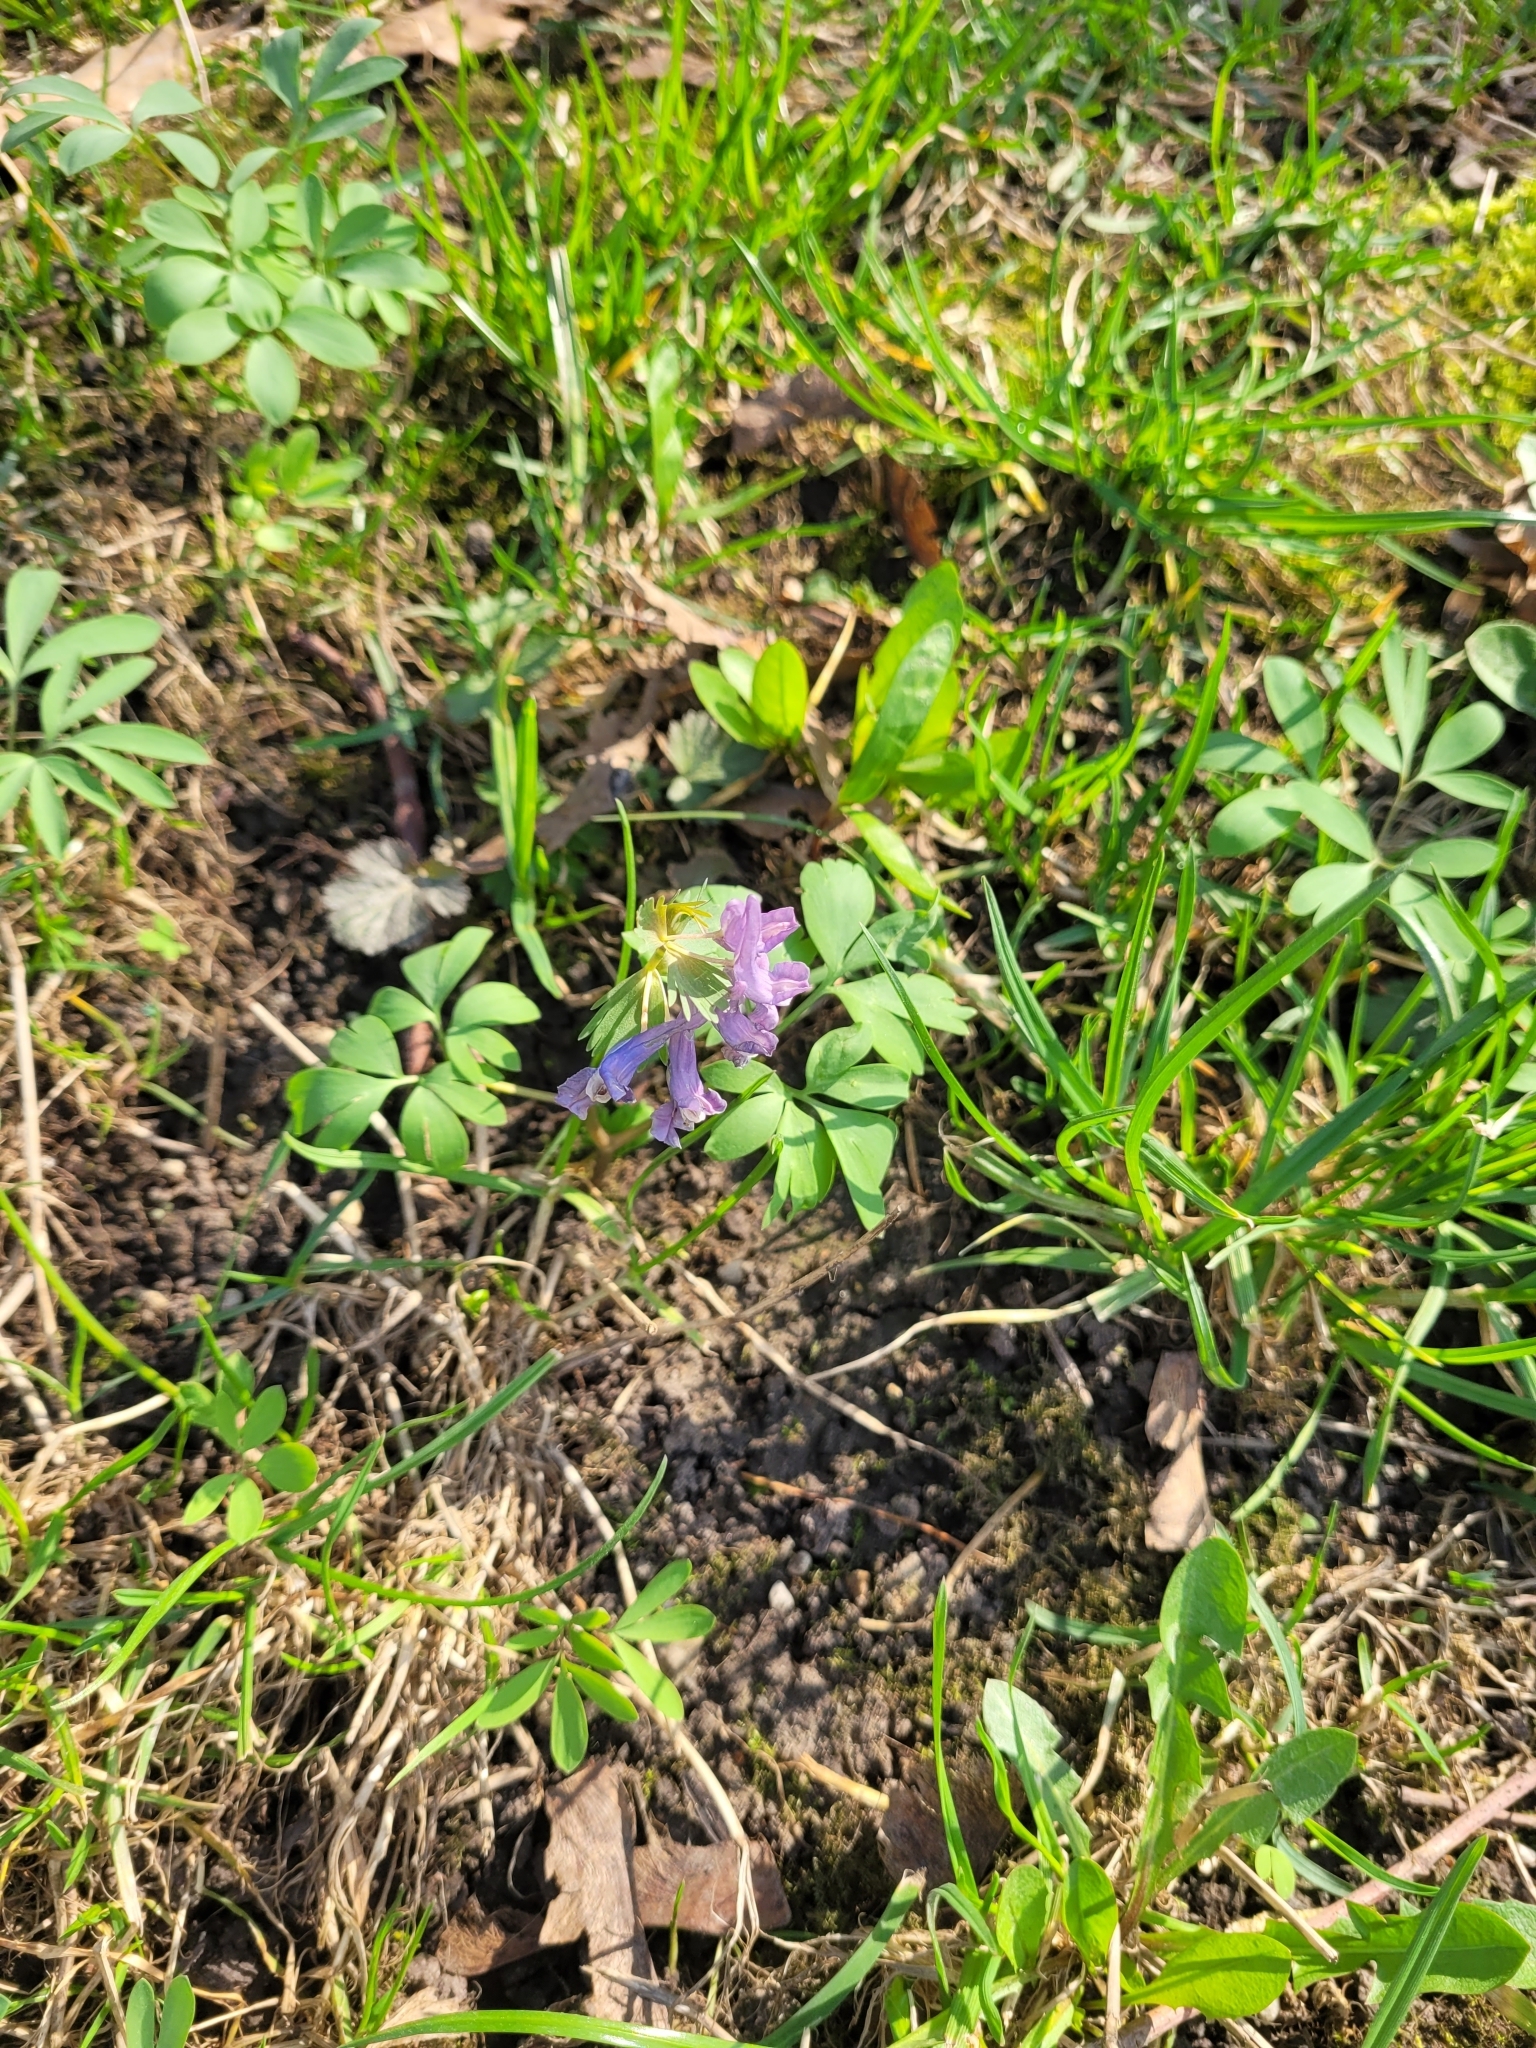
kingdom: Plantae
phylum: Tracheophyta
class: Magnoliopsida
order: Ranunculales
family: Papaveraceae
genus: Corydalis
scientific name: Corydalis solida
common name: Bird-in-a-bush
